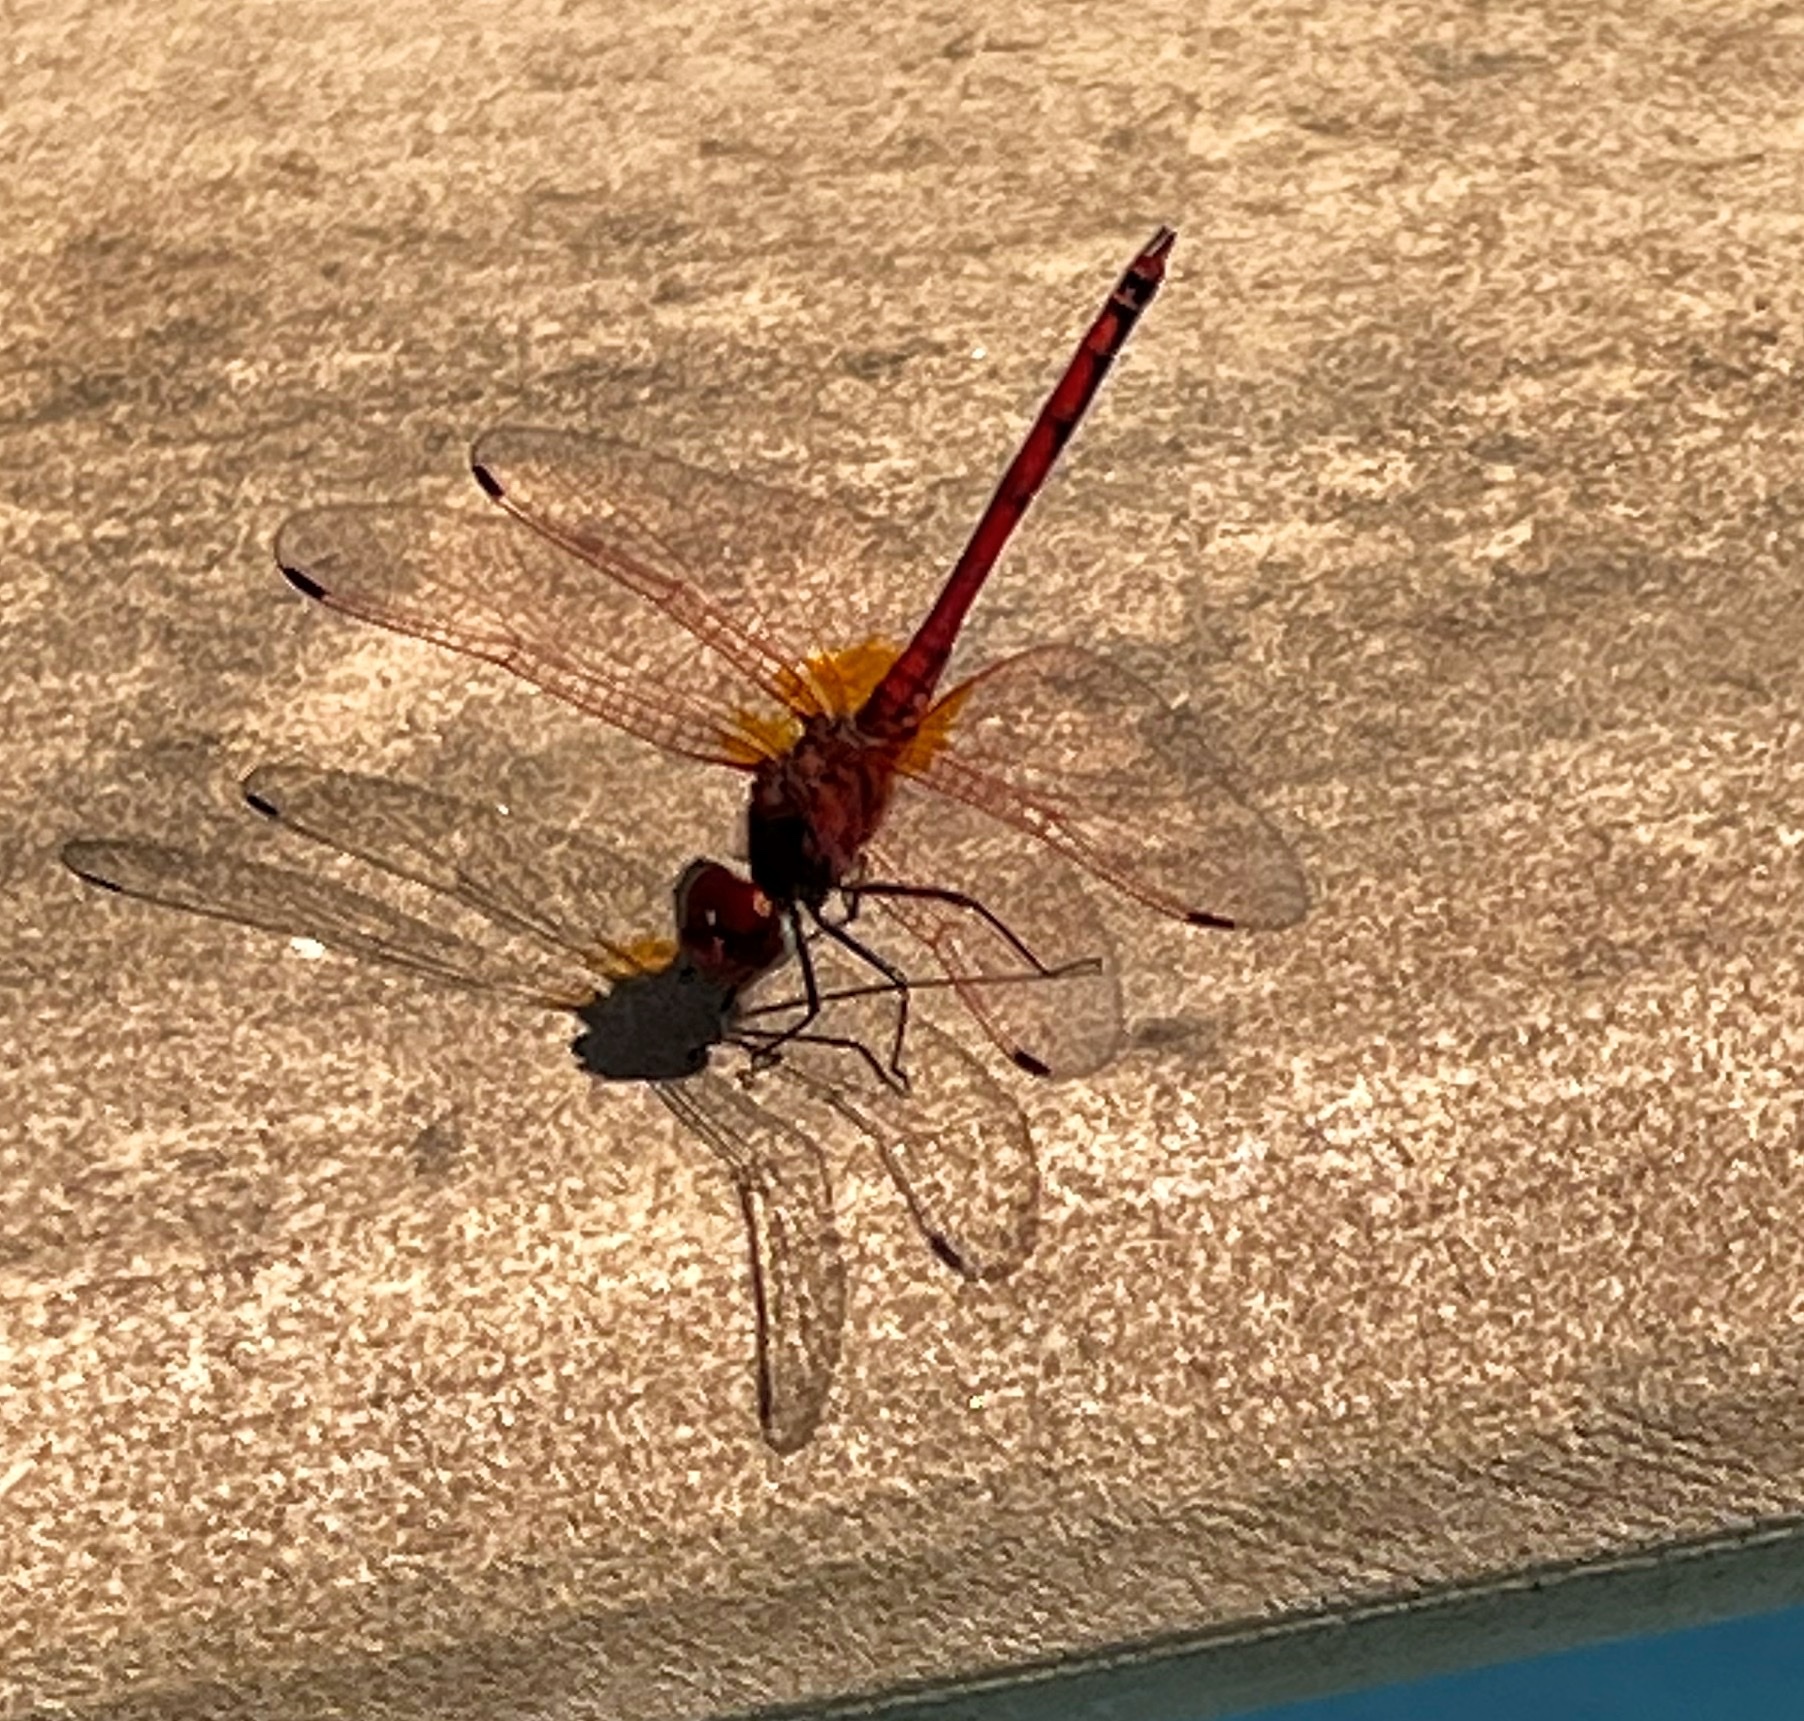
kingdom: Animalia
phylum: Arthropoda
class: Insecta
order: Odonata
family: Libellulidae
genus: Trithemis
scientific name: Trithemis arteriosa
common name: Red-veined dropwing
